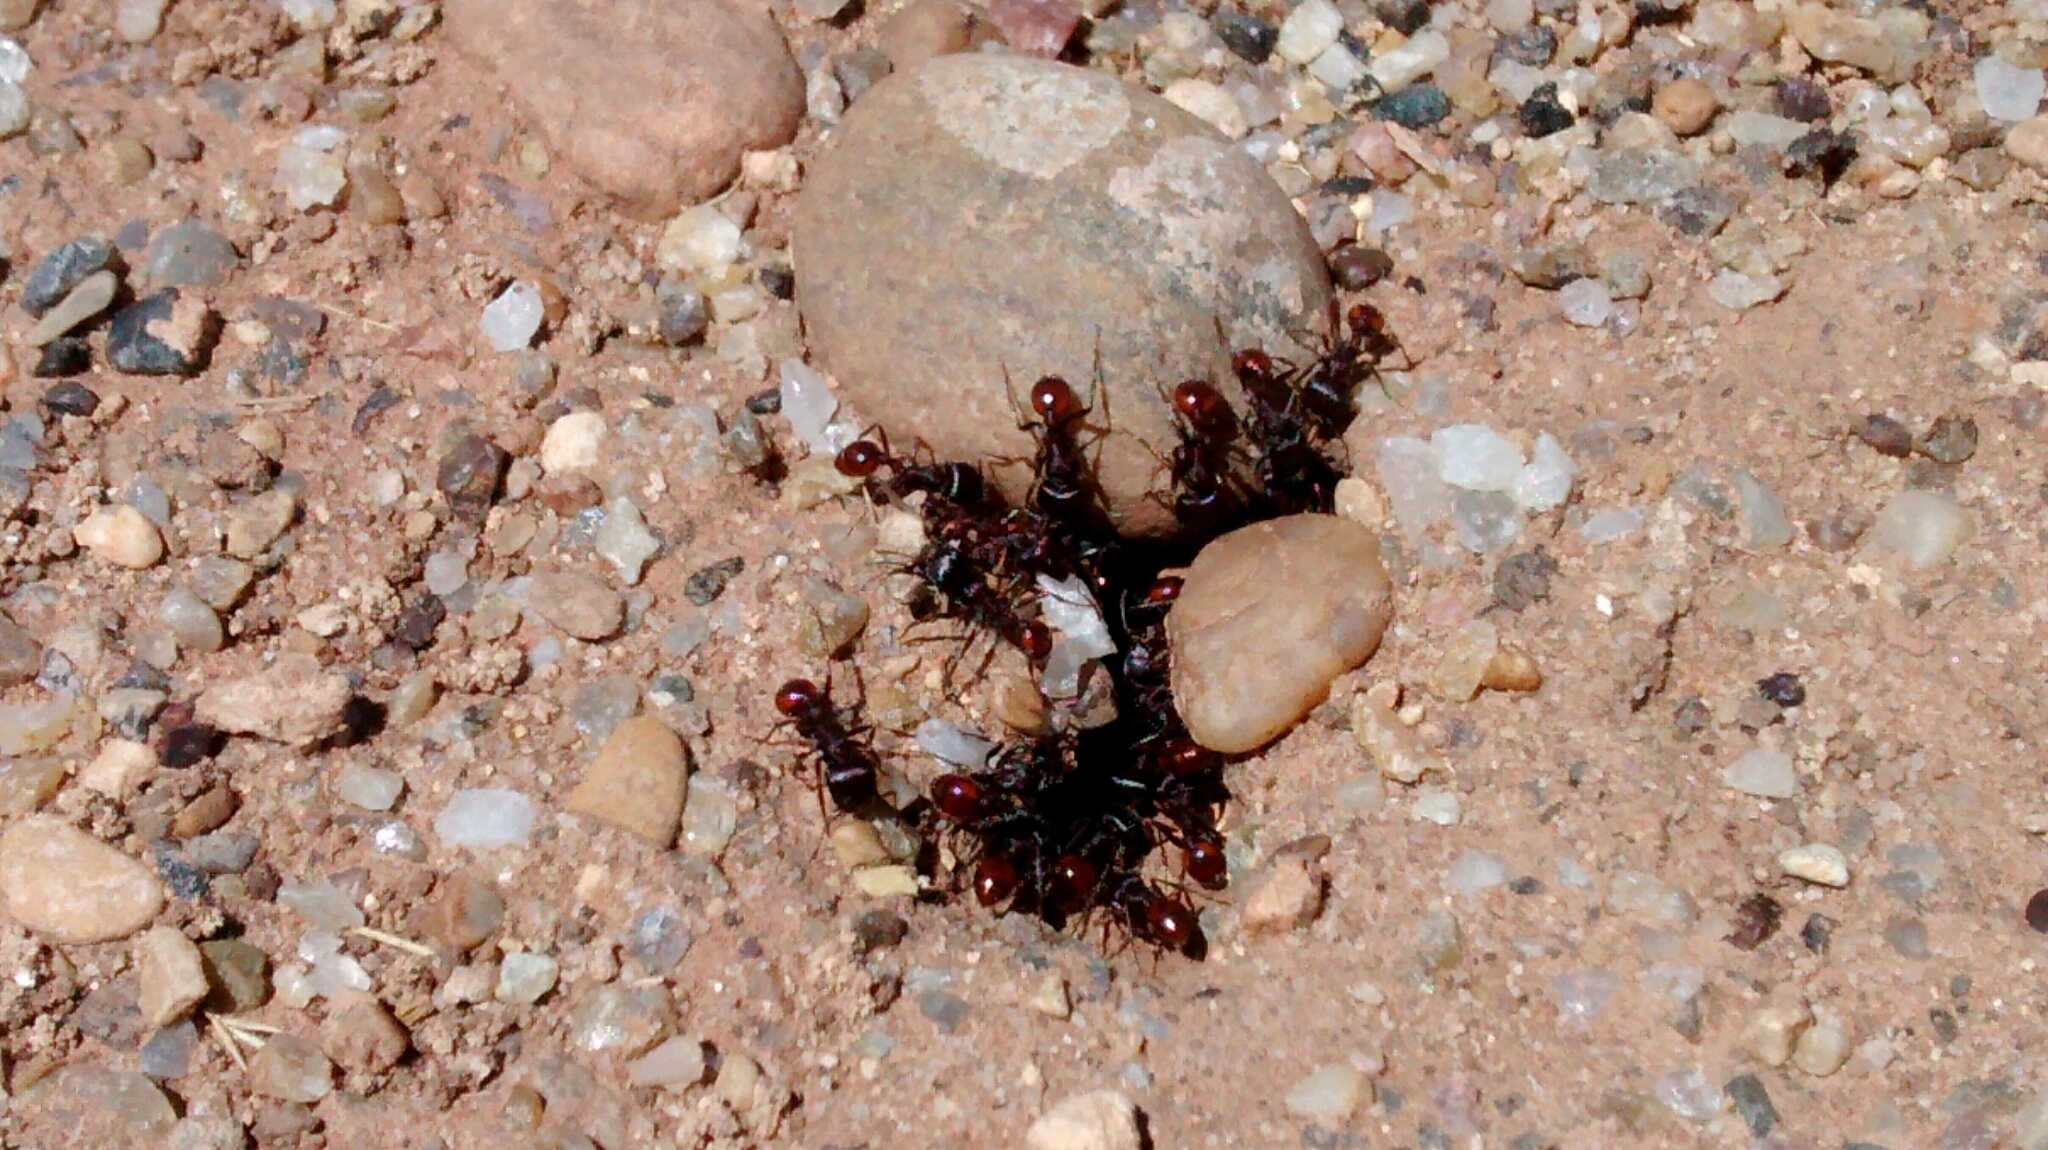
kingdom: Animalia
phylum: Arthropoda
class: Insecta
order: Hymenoptera
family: Formicidae
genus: Pogonomyrmex
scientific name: Pogonomyrmex rugosus
